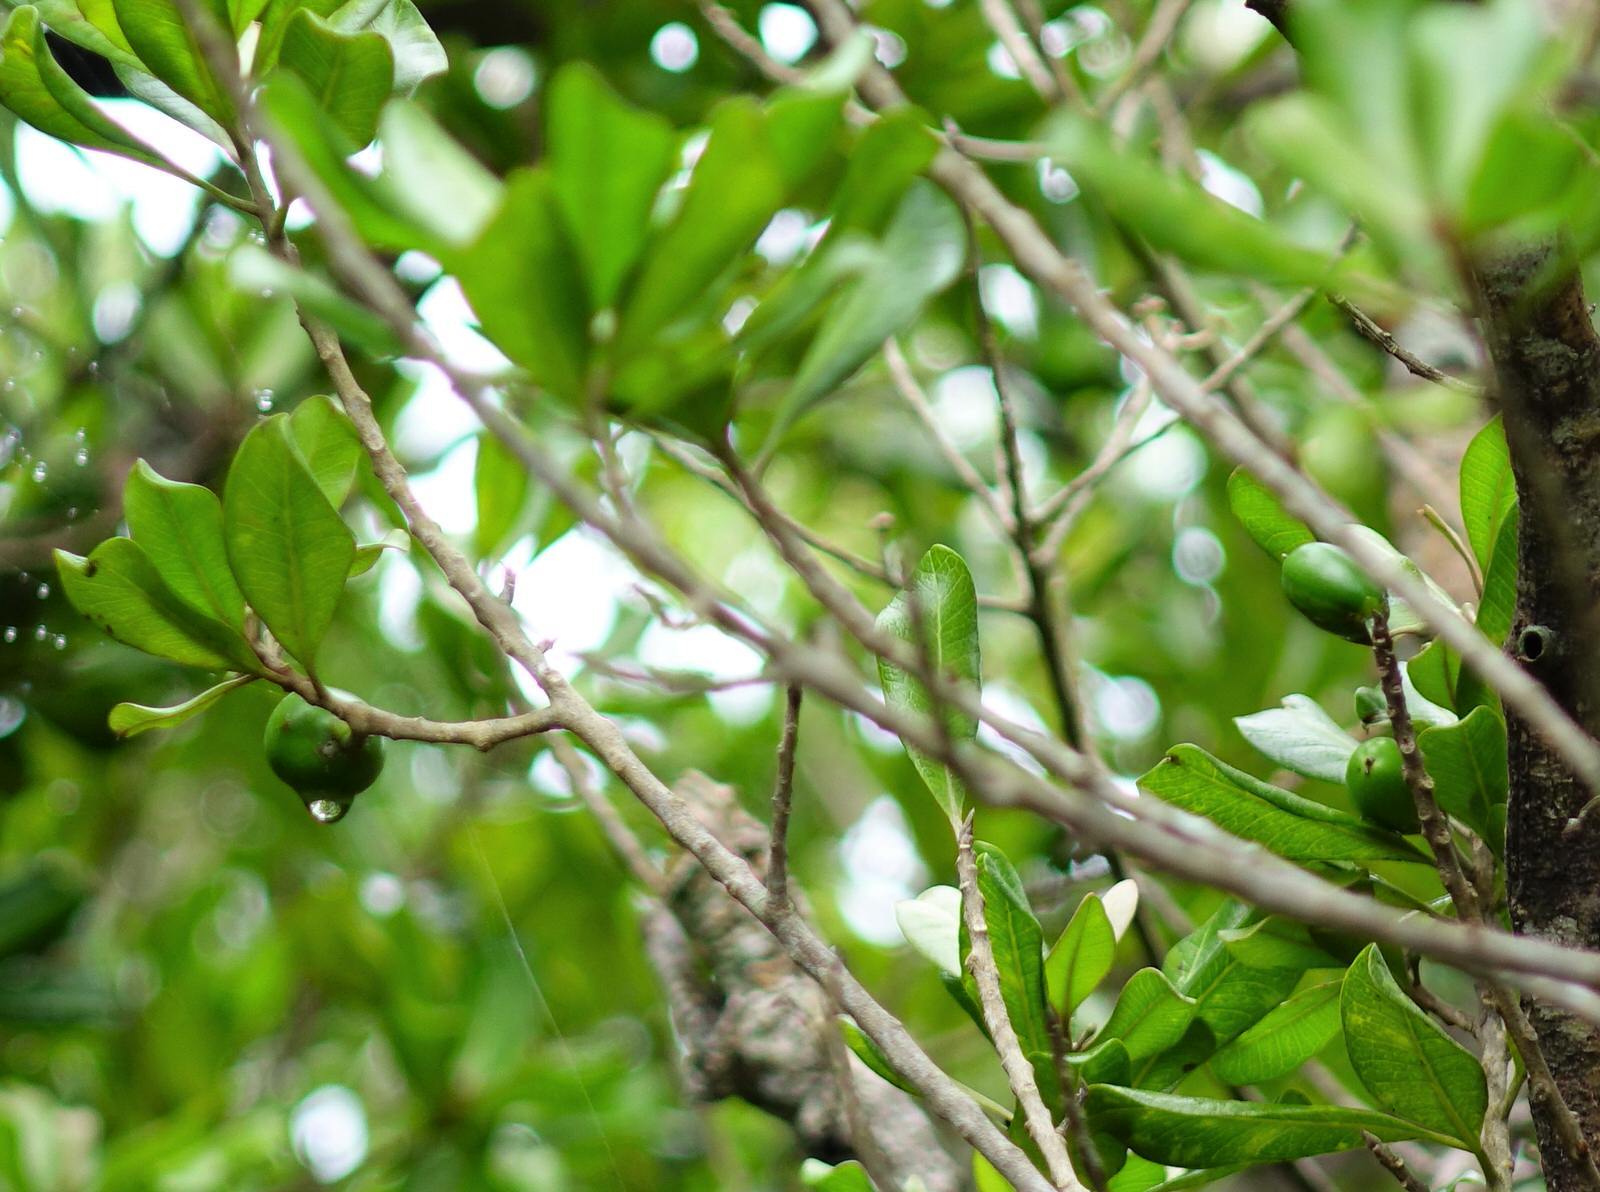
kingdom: Plantae
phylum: Tracheophyta
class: Magnoliopsida
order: Ericales
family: Sapotaceae
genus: Planchonella
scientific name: Planchonella costata
